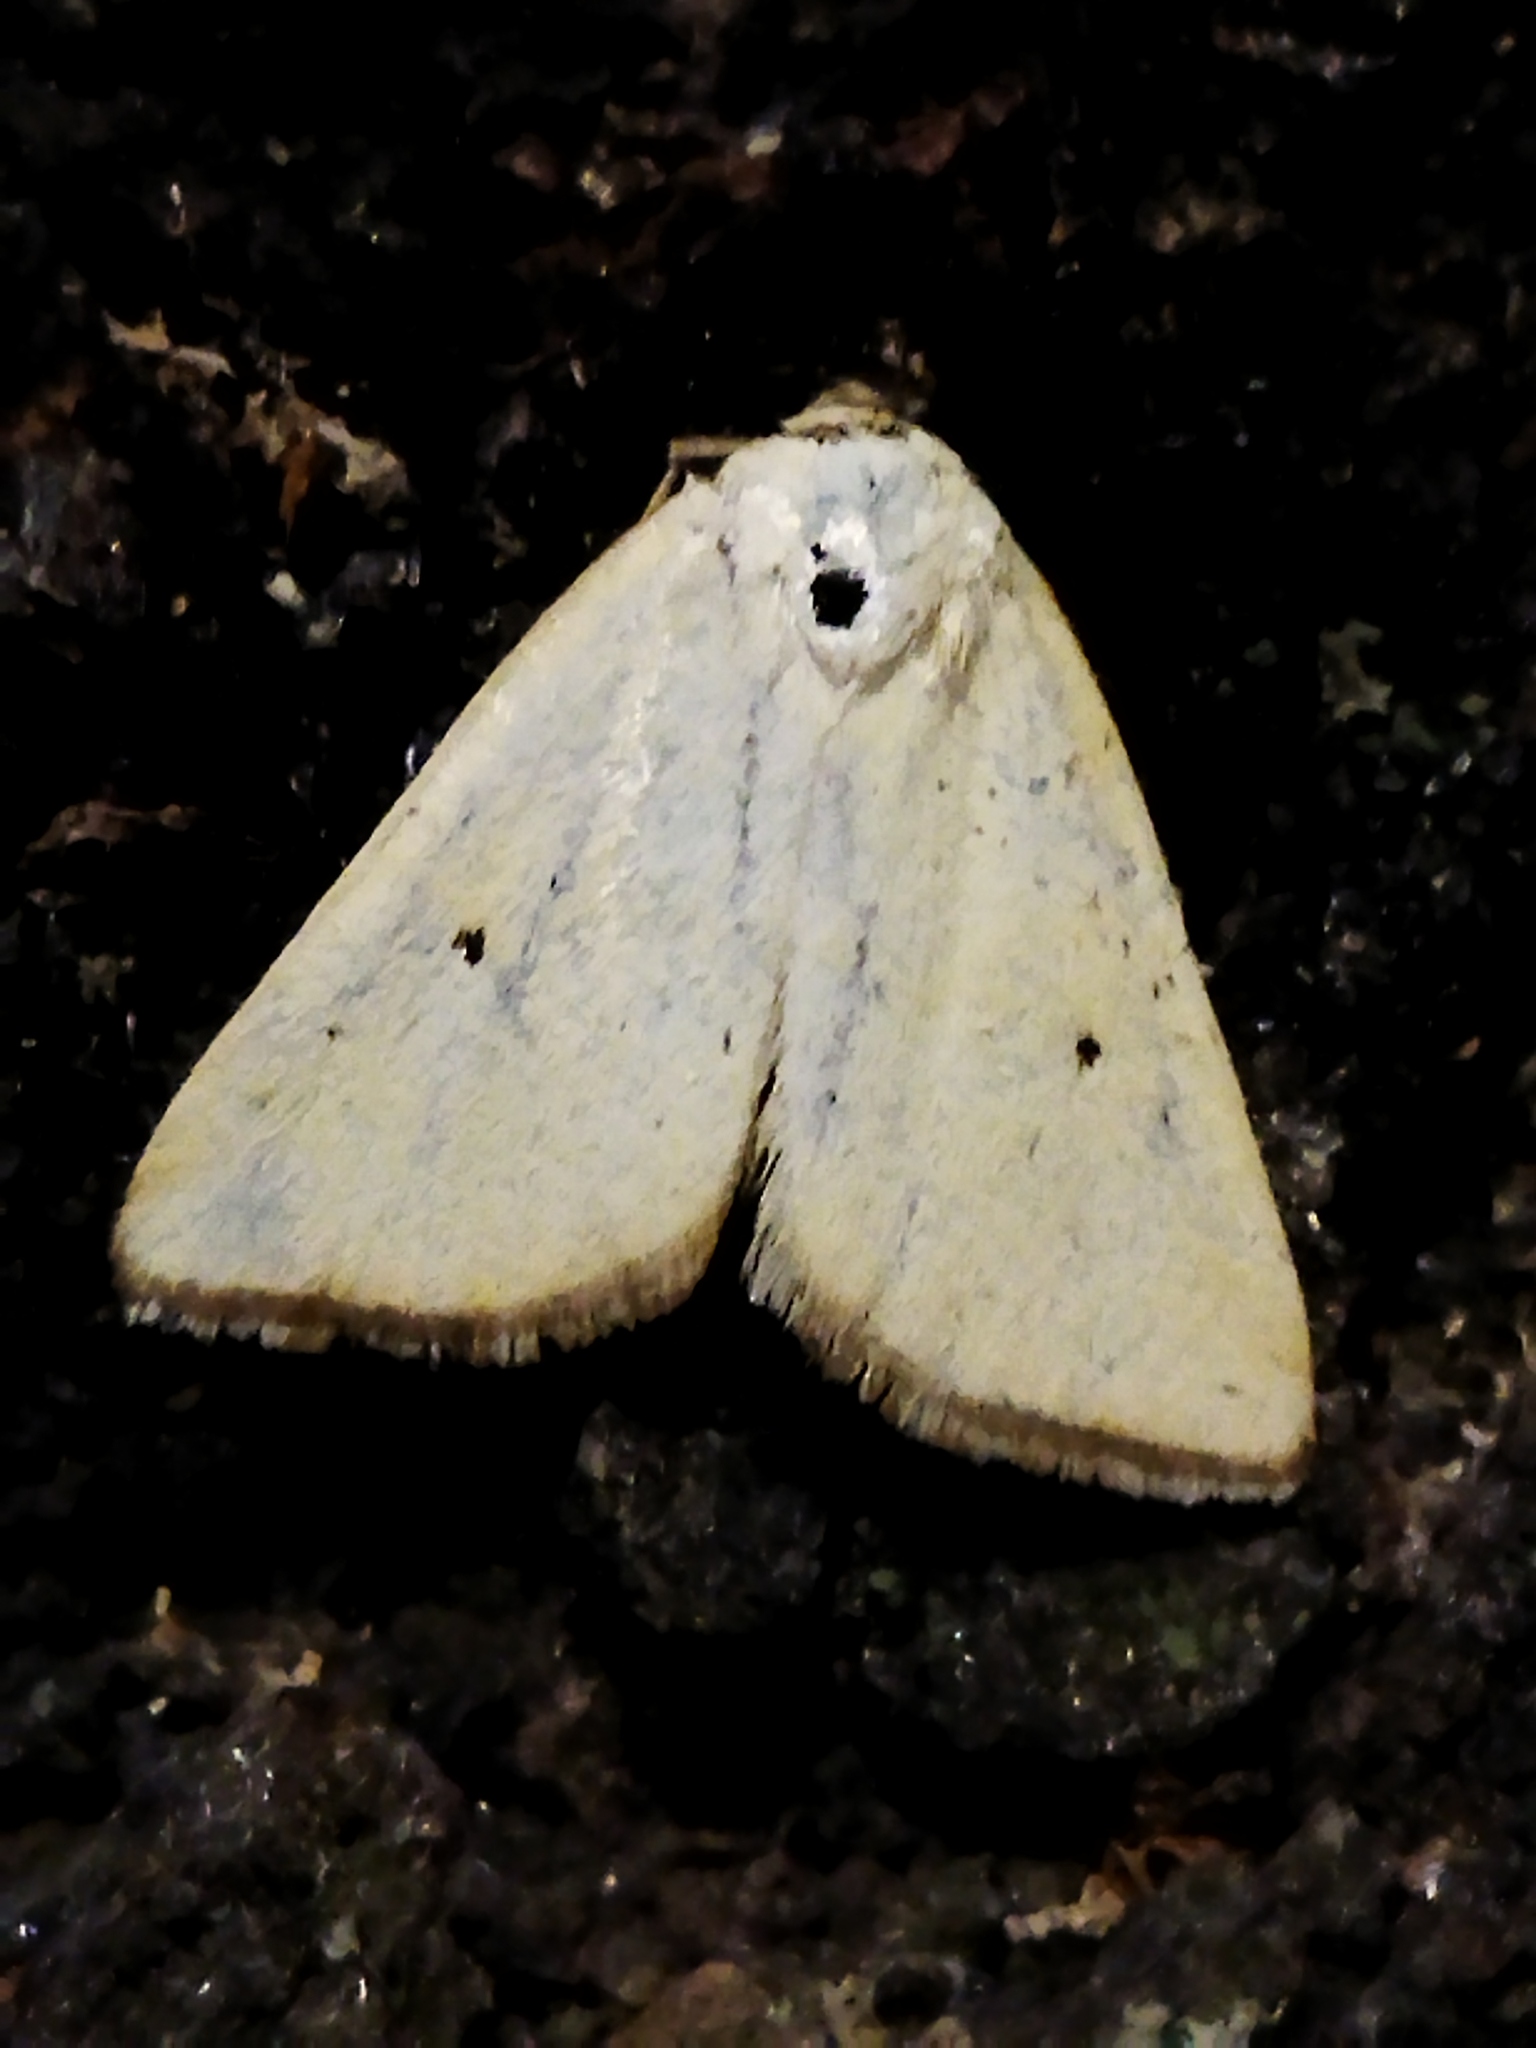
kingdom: Animalia
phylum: Arthropoda
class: Insecta
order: Lepidoptera
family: Noctuidae
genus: Aegle
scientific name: Aegle kaekeritziana
